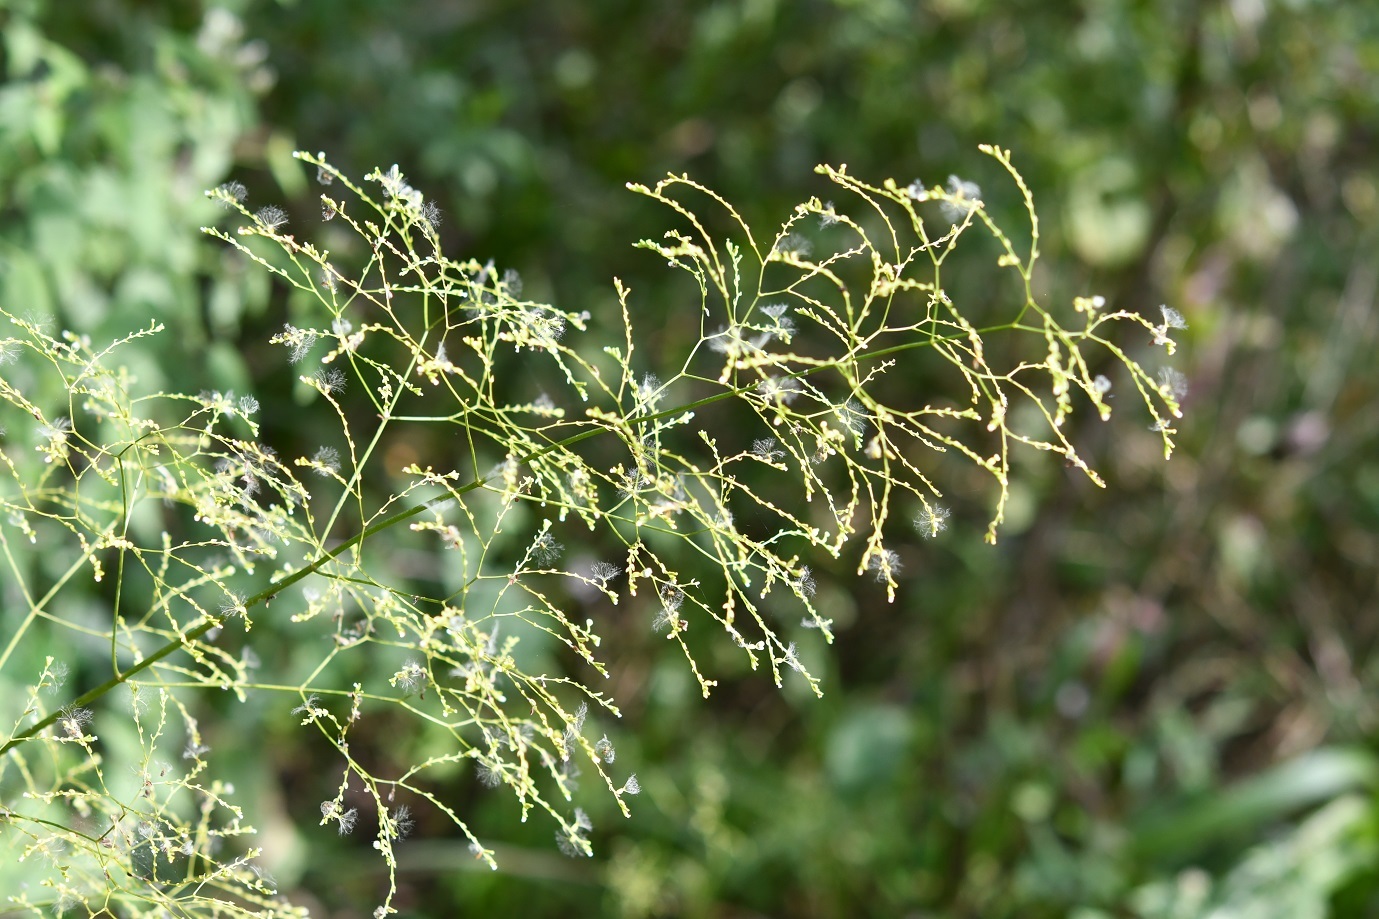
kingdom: Plantae
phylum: Tracheophyta
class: Magnoliopsida
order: Dipsacales
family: Caprifoliaceae
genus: Valeriana
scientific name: Valeriana sorbifolia
